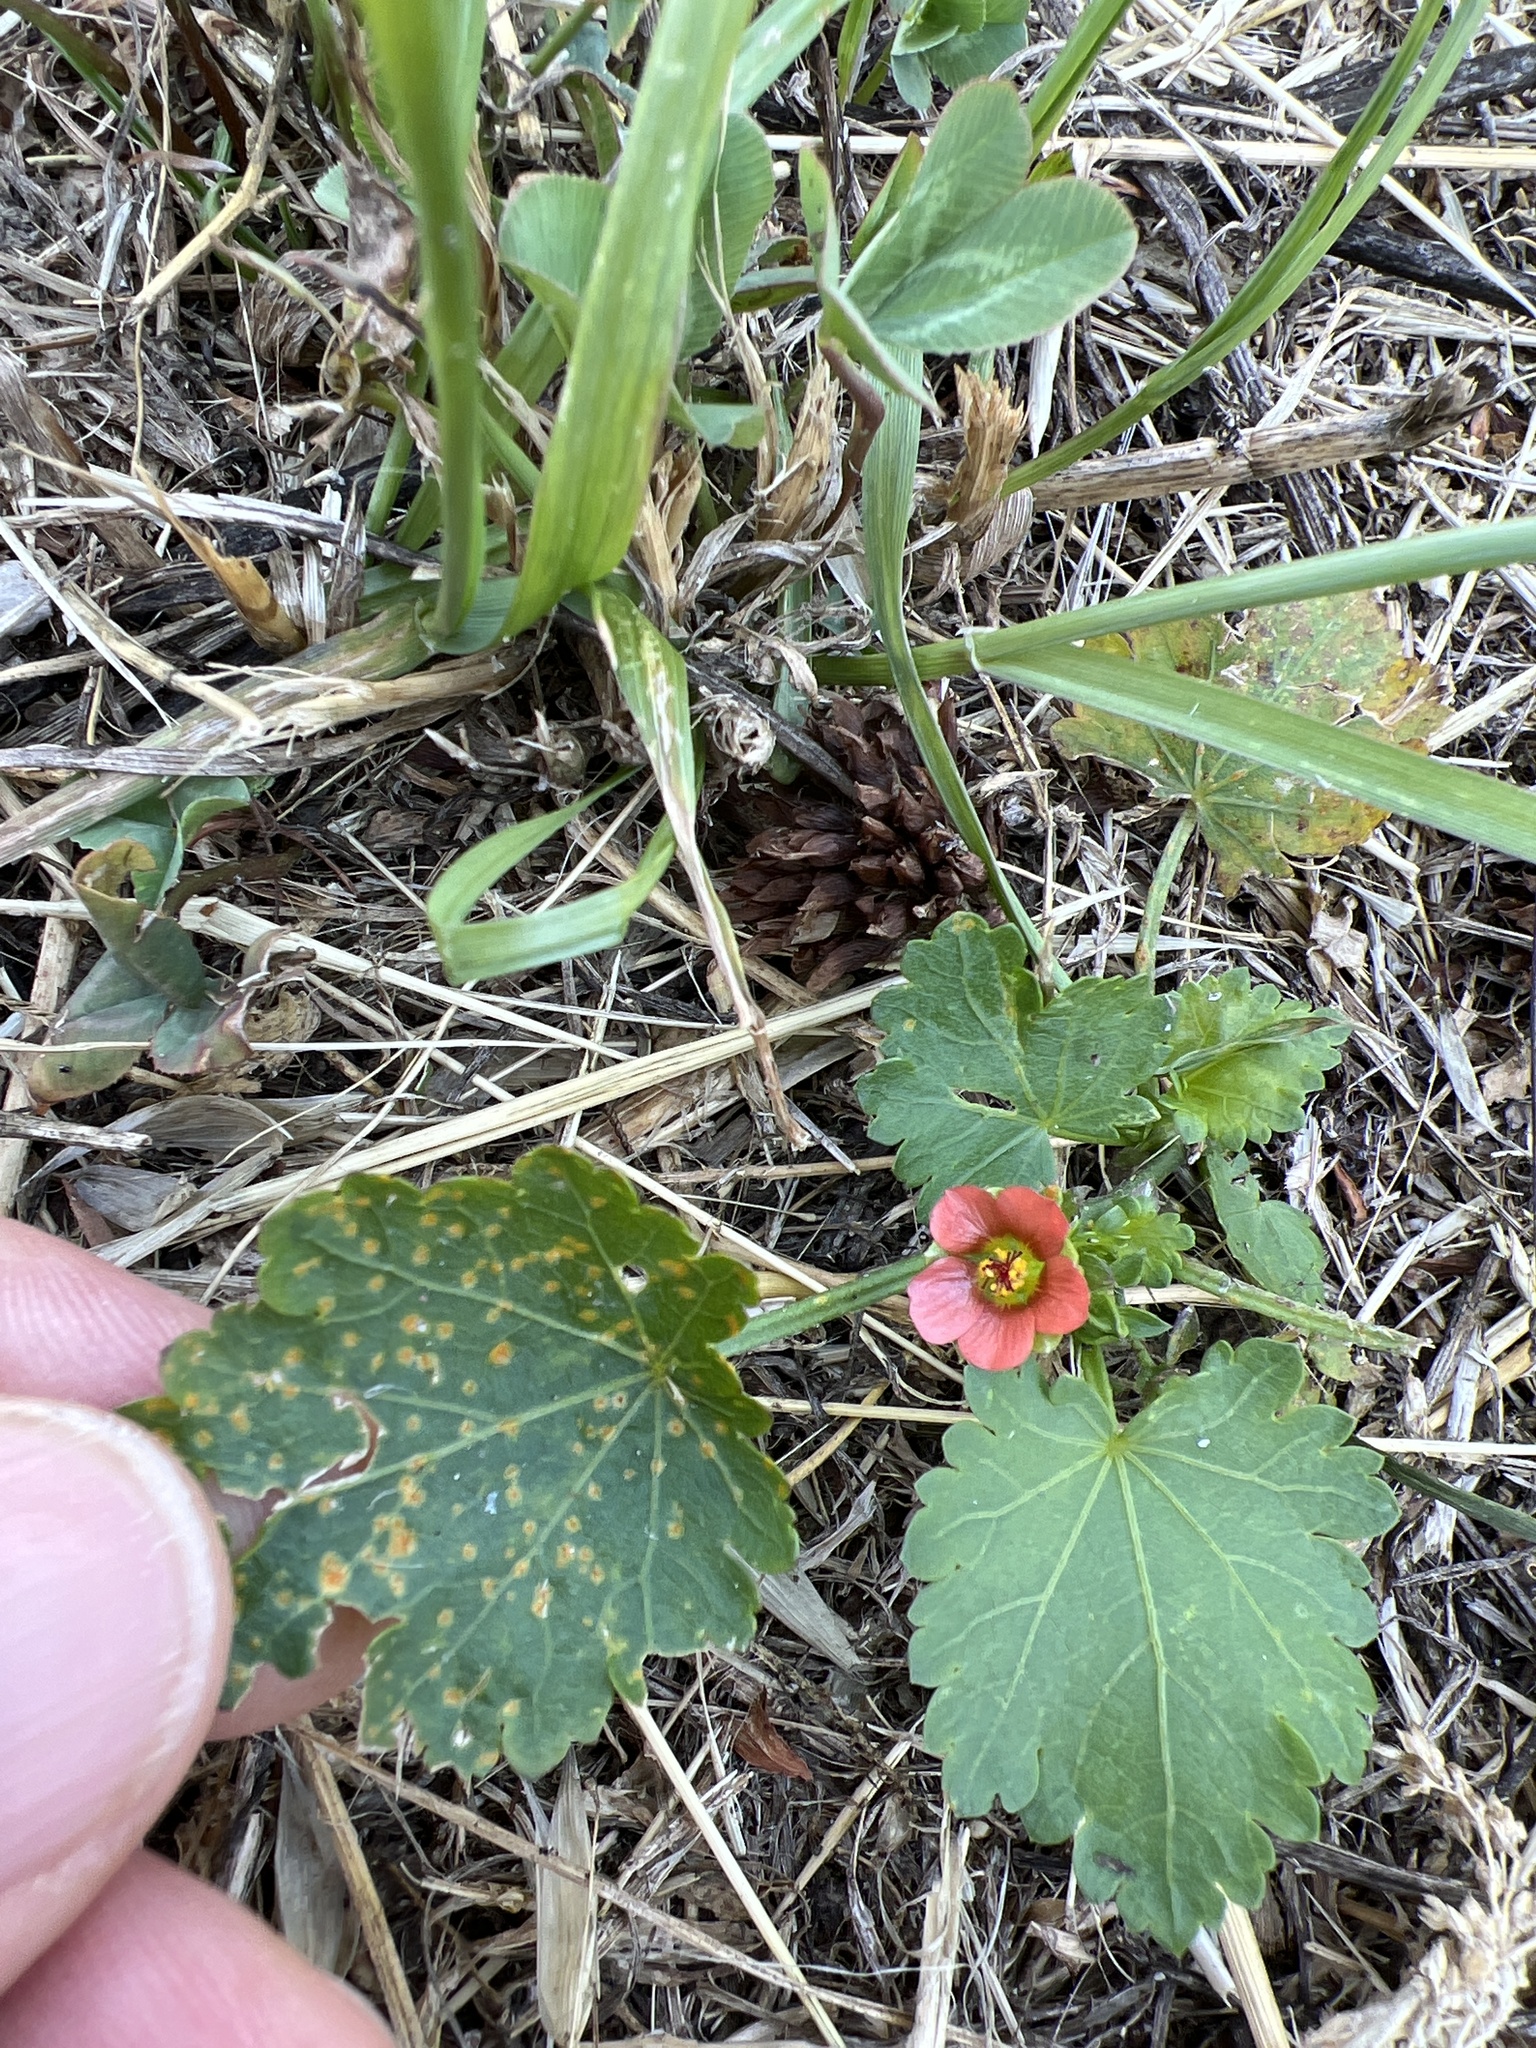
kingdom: Plantae
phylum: Tracheophyta
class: Magnoliopsida
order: Malvales
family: Malvaceae
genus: Modiola
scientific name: Modiola caroliniana
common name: Carolina bristlemallow
